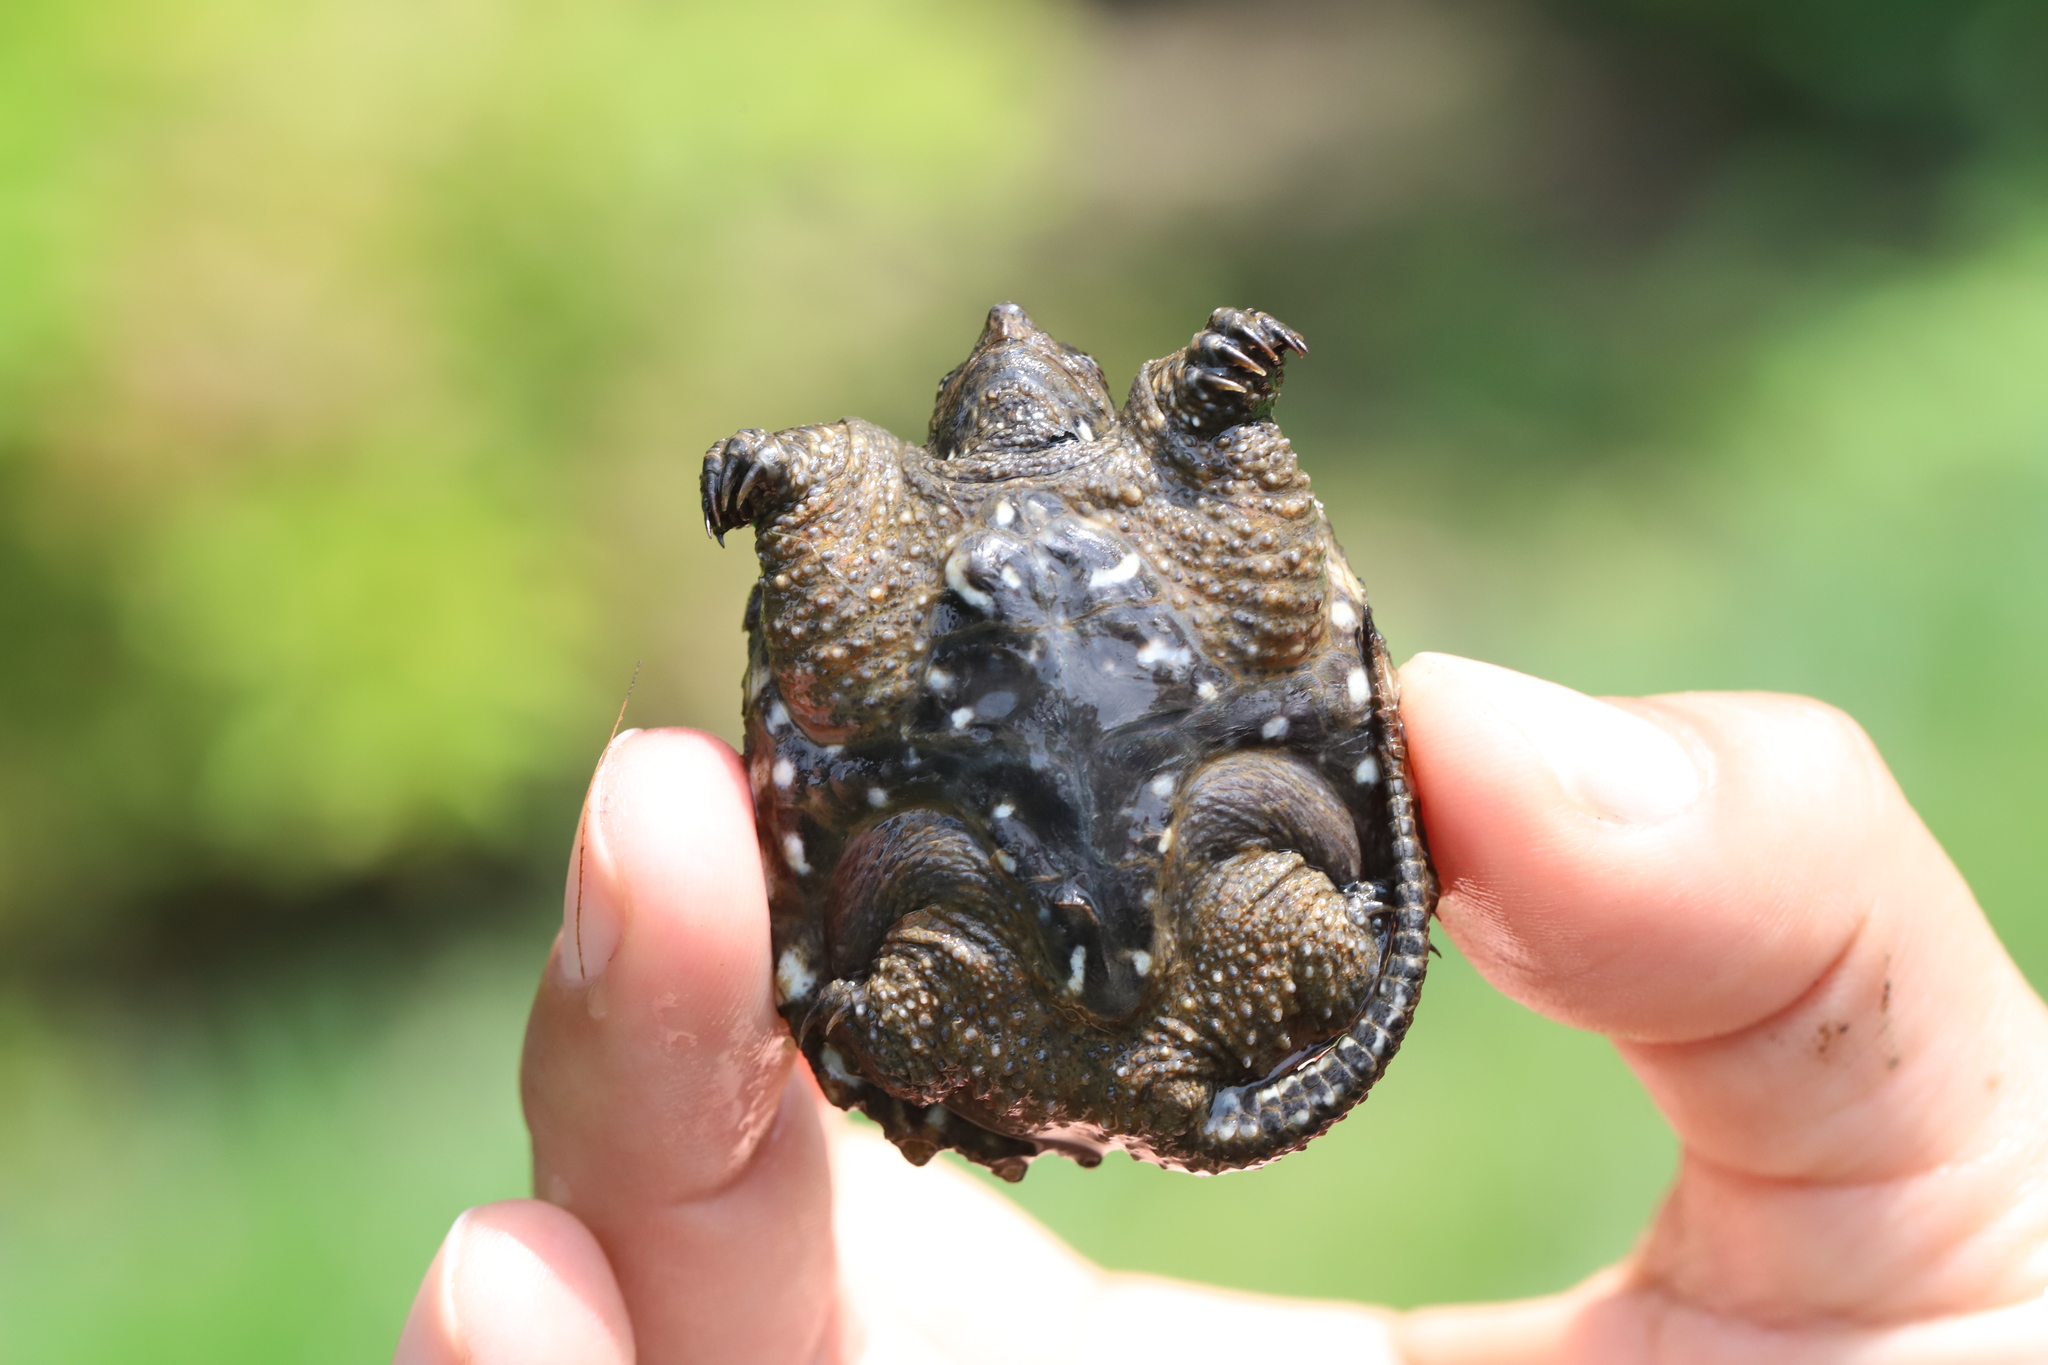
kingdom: Animalia
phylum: Chordata
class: Testudines
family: Chelydridae
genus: Chelydra
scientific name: Chelydra serpentina
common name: Common snapping turtle
